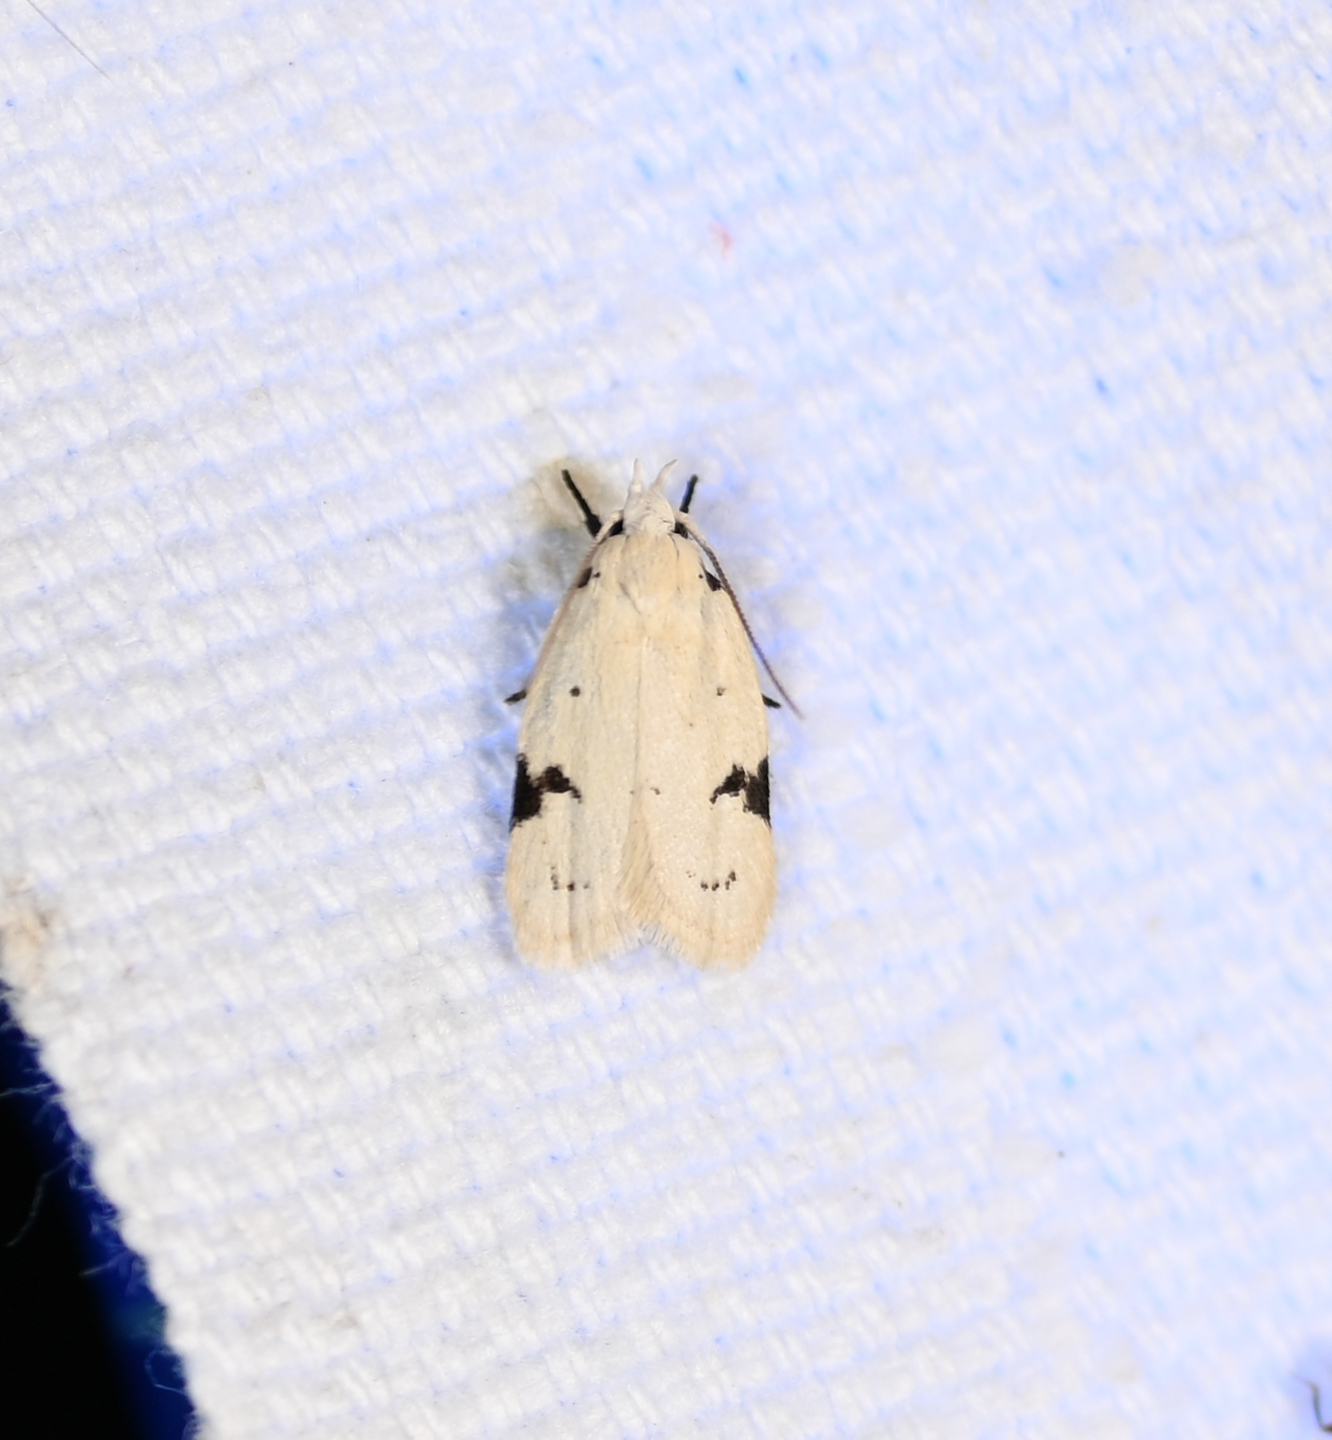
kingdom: Animalia
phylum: Arthropoda
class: Insecta
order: Lepidoptera
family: Oecophoridae
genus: Inga
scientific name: Inga sparsiciliella
